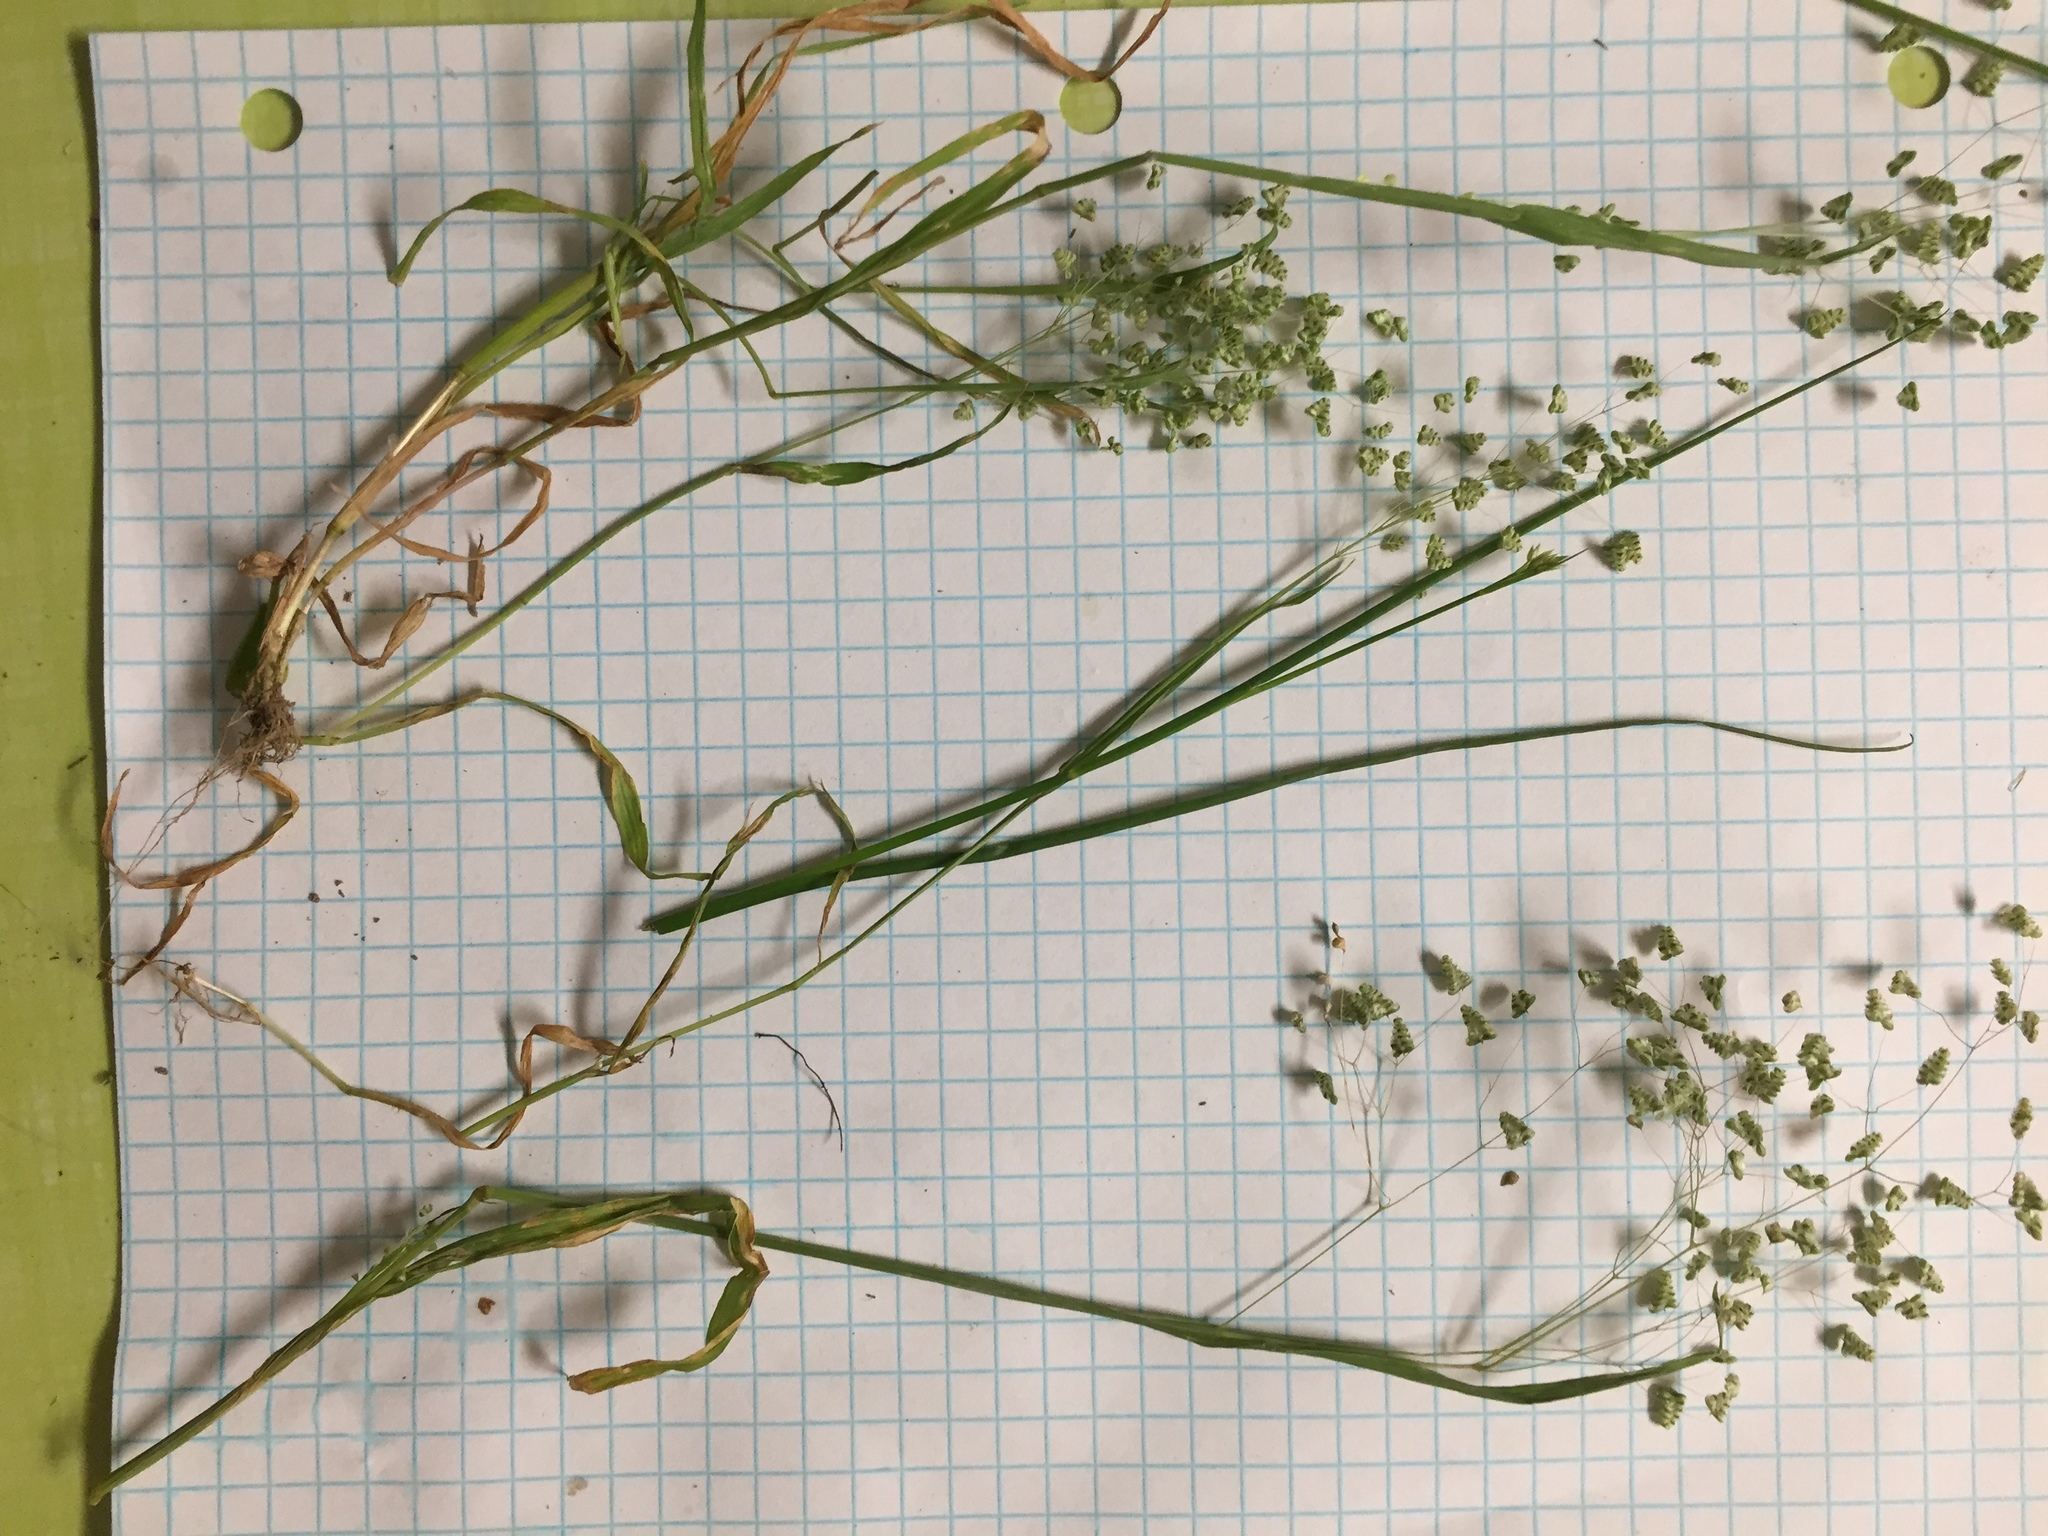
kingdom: Plantae
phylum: Tracheophyta
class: Liliopsida
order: Poales
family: Poaceae
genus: Briza
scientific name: Briza minor
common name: Lesser quaking-grass
